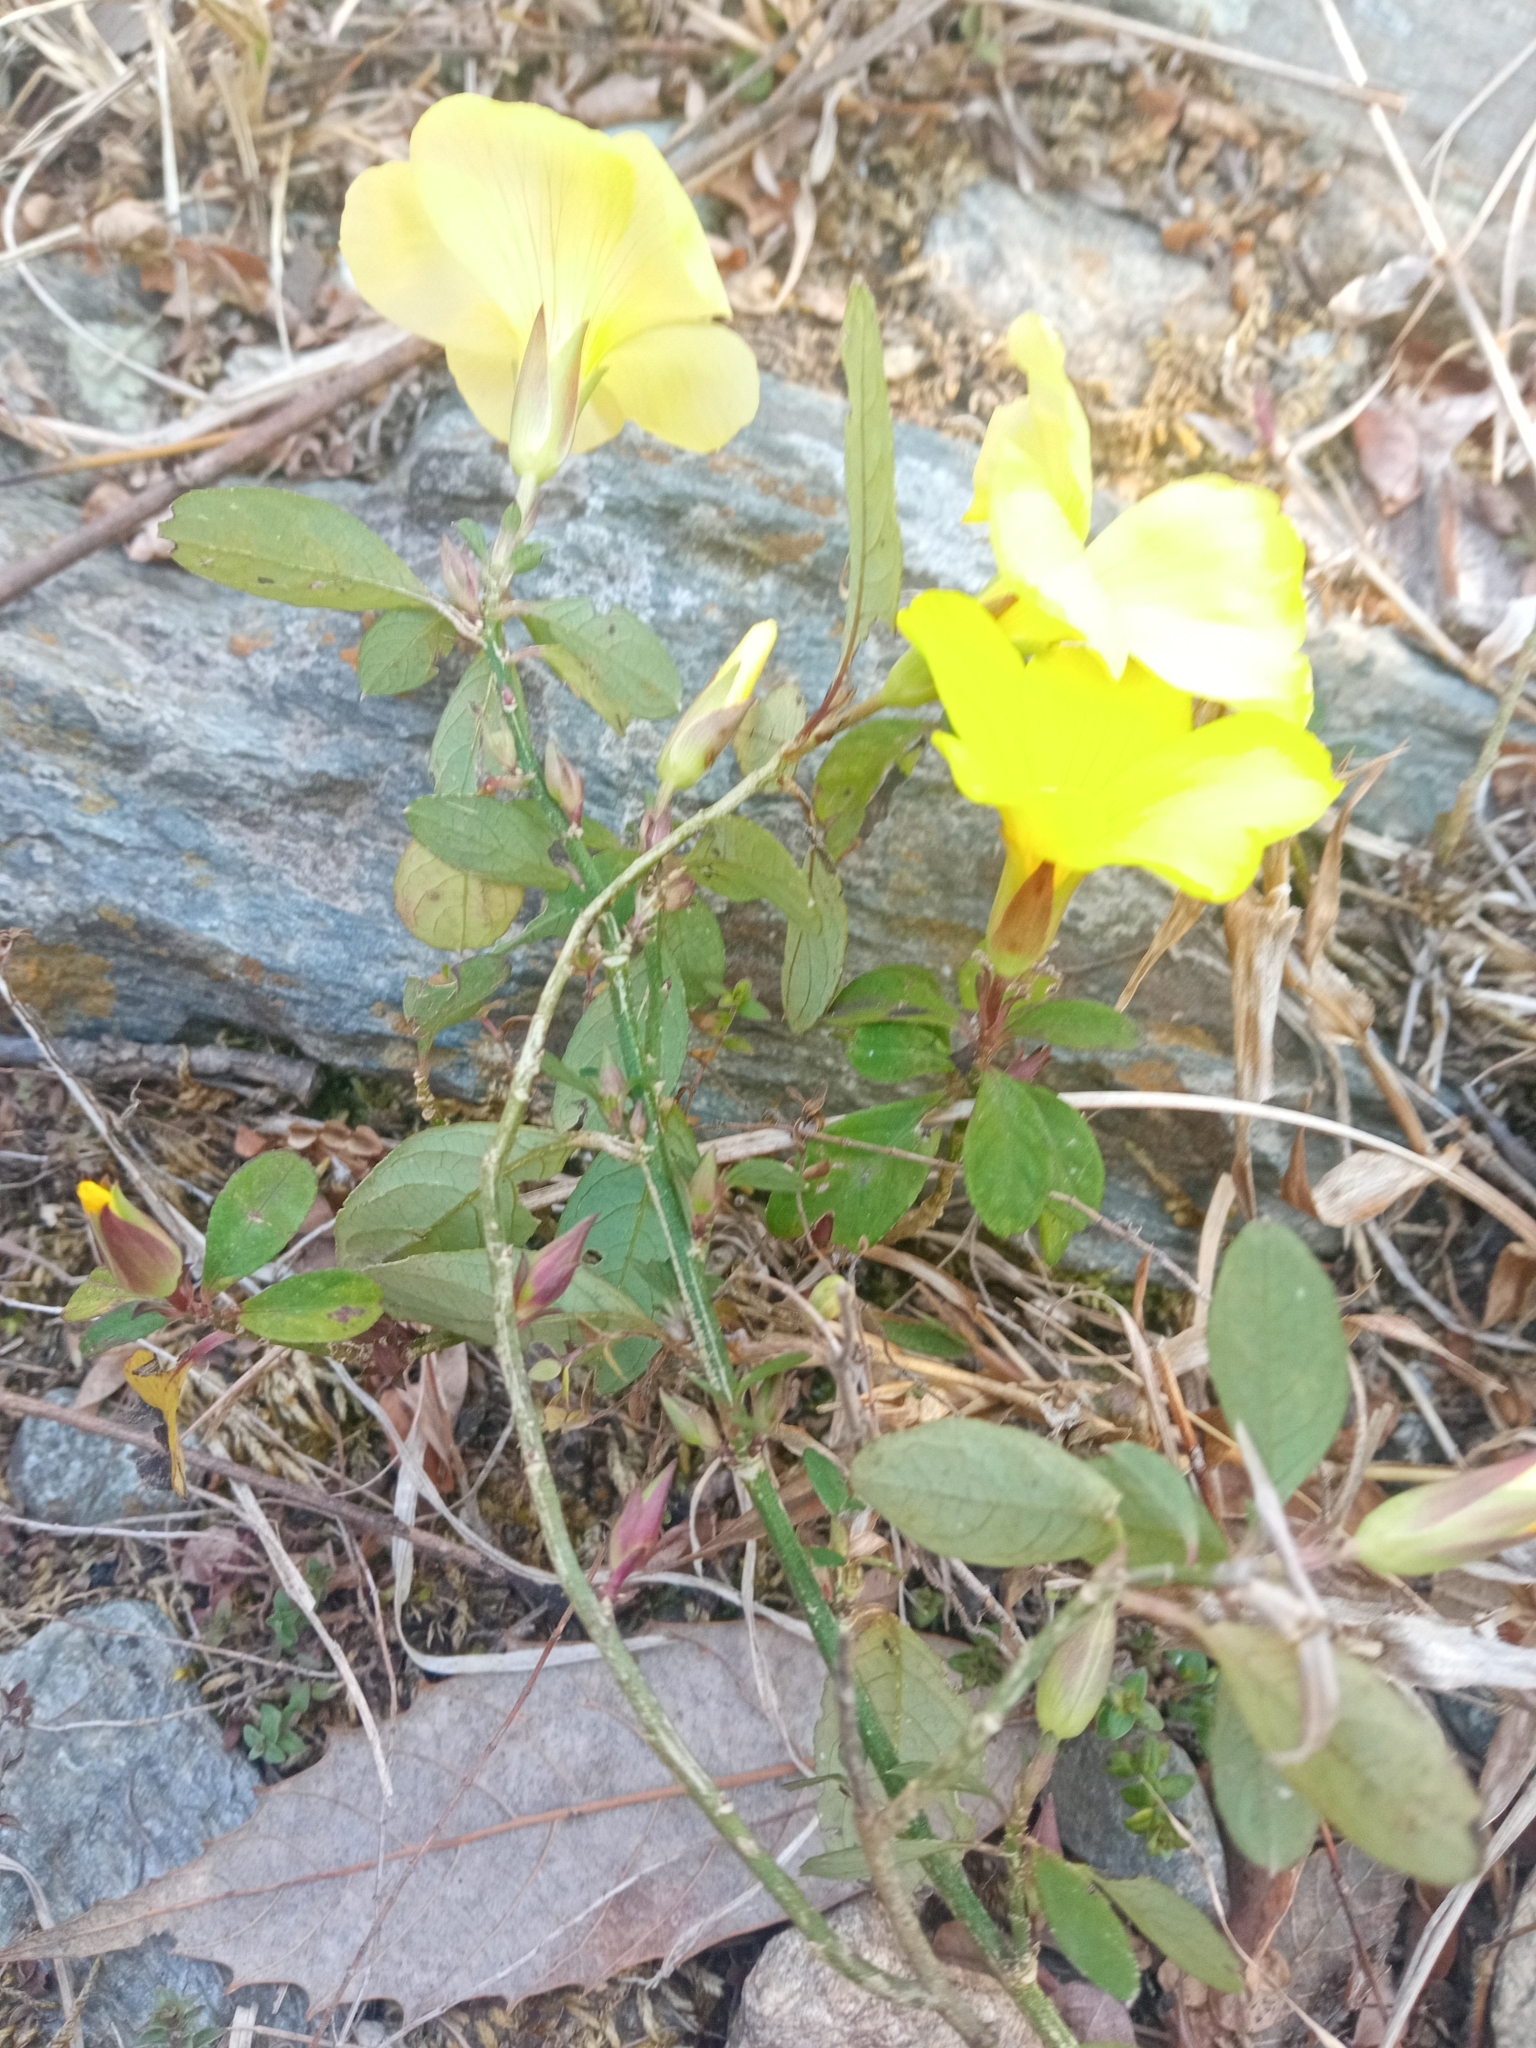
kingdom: Plantae
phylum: Tracheophyta
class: Magnoliopsida
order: Malpighiales
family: Linaceae
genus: Reinwardtia
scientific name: Reinwardtia indica
